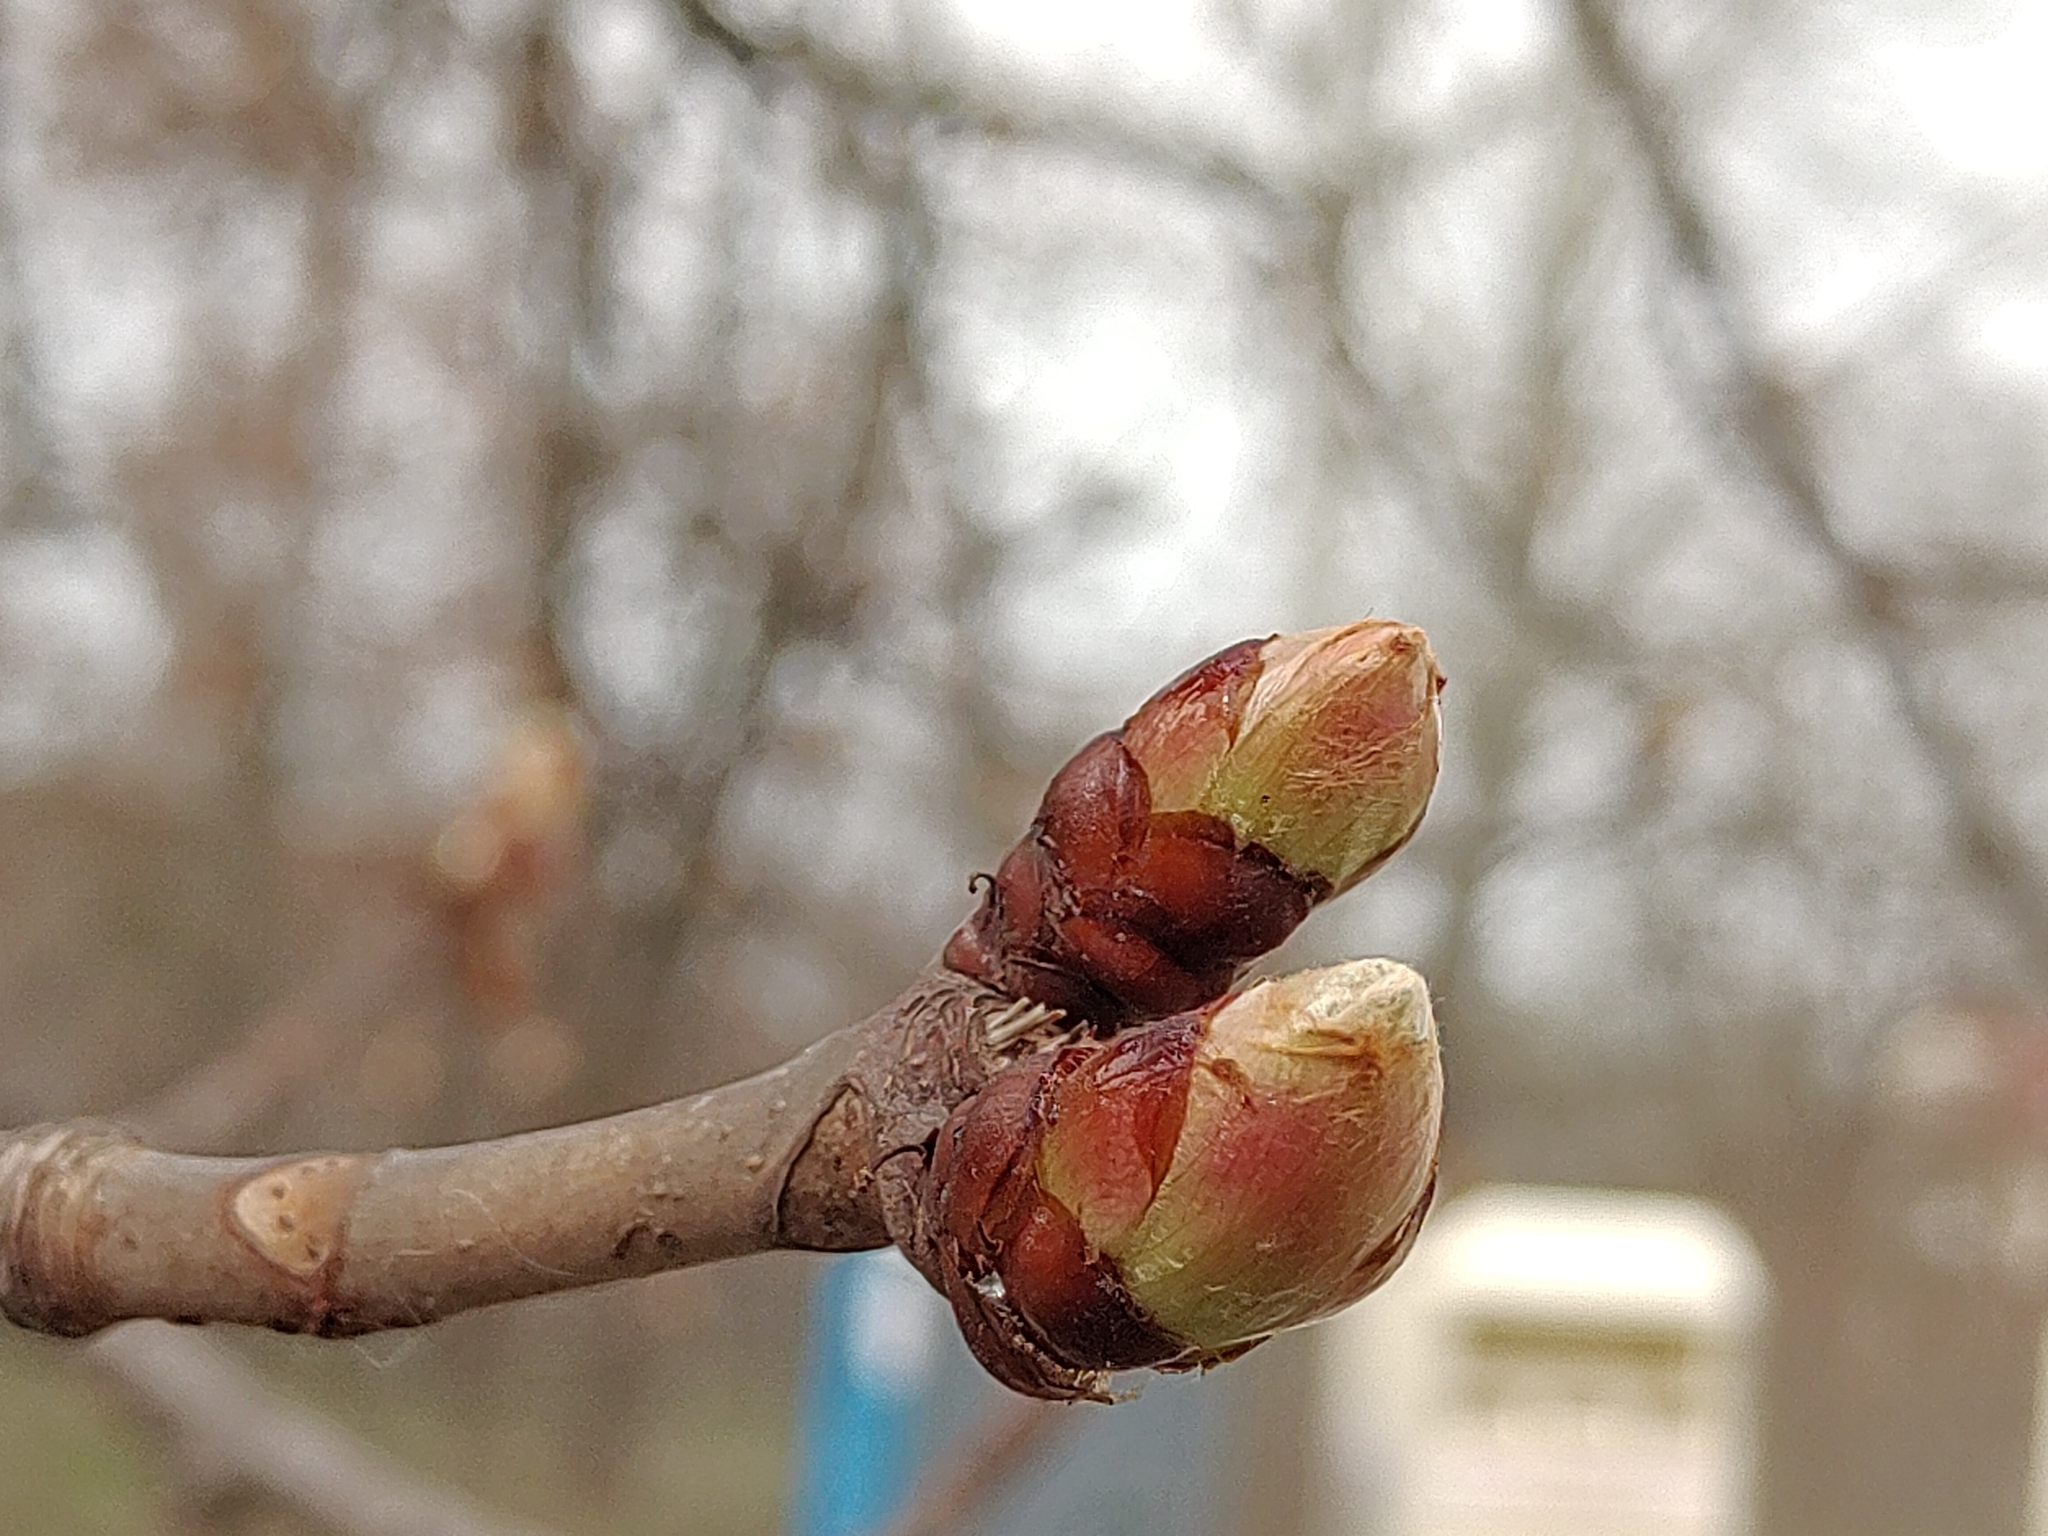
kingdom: Plantae
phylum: Tracheophyta
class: Magnoliopsida
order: Sapindales
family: Sapindaceae
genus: Aesculus
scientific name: Aesculus hippocastanum
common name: Horse-chestnut
